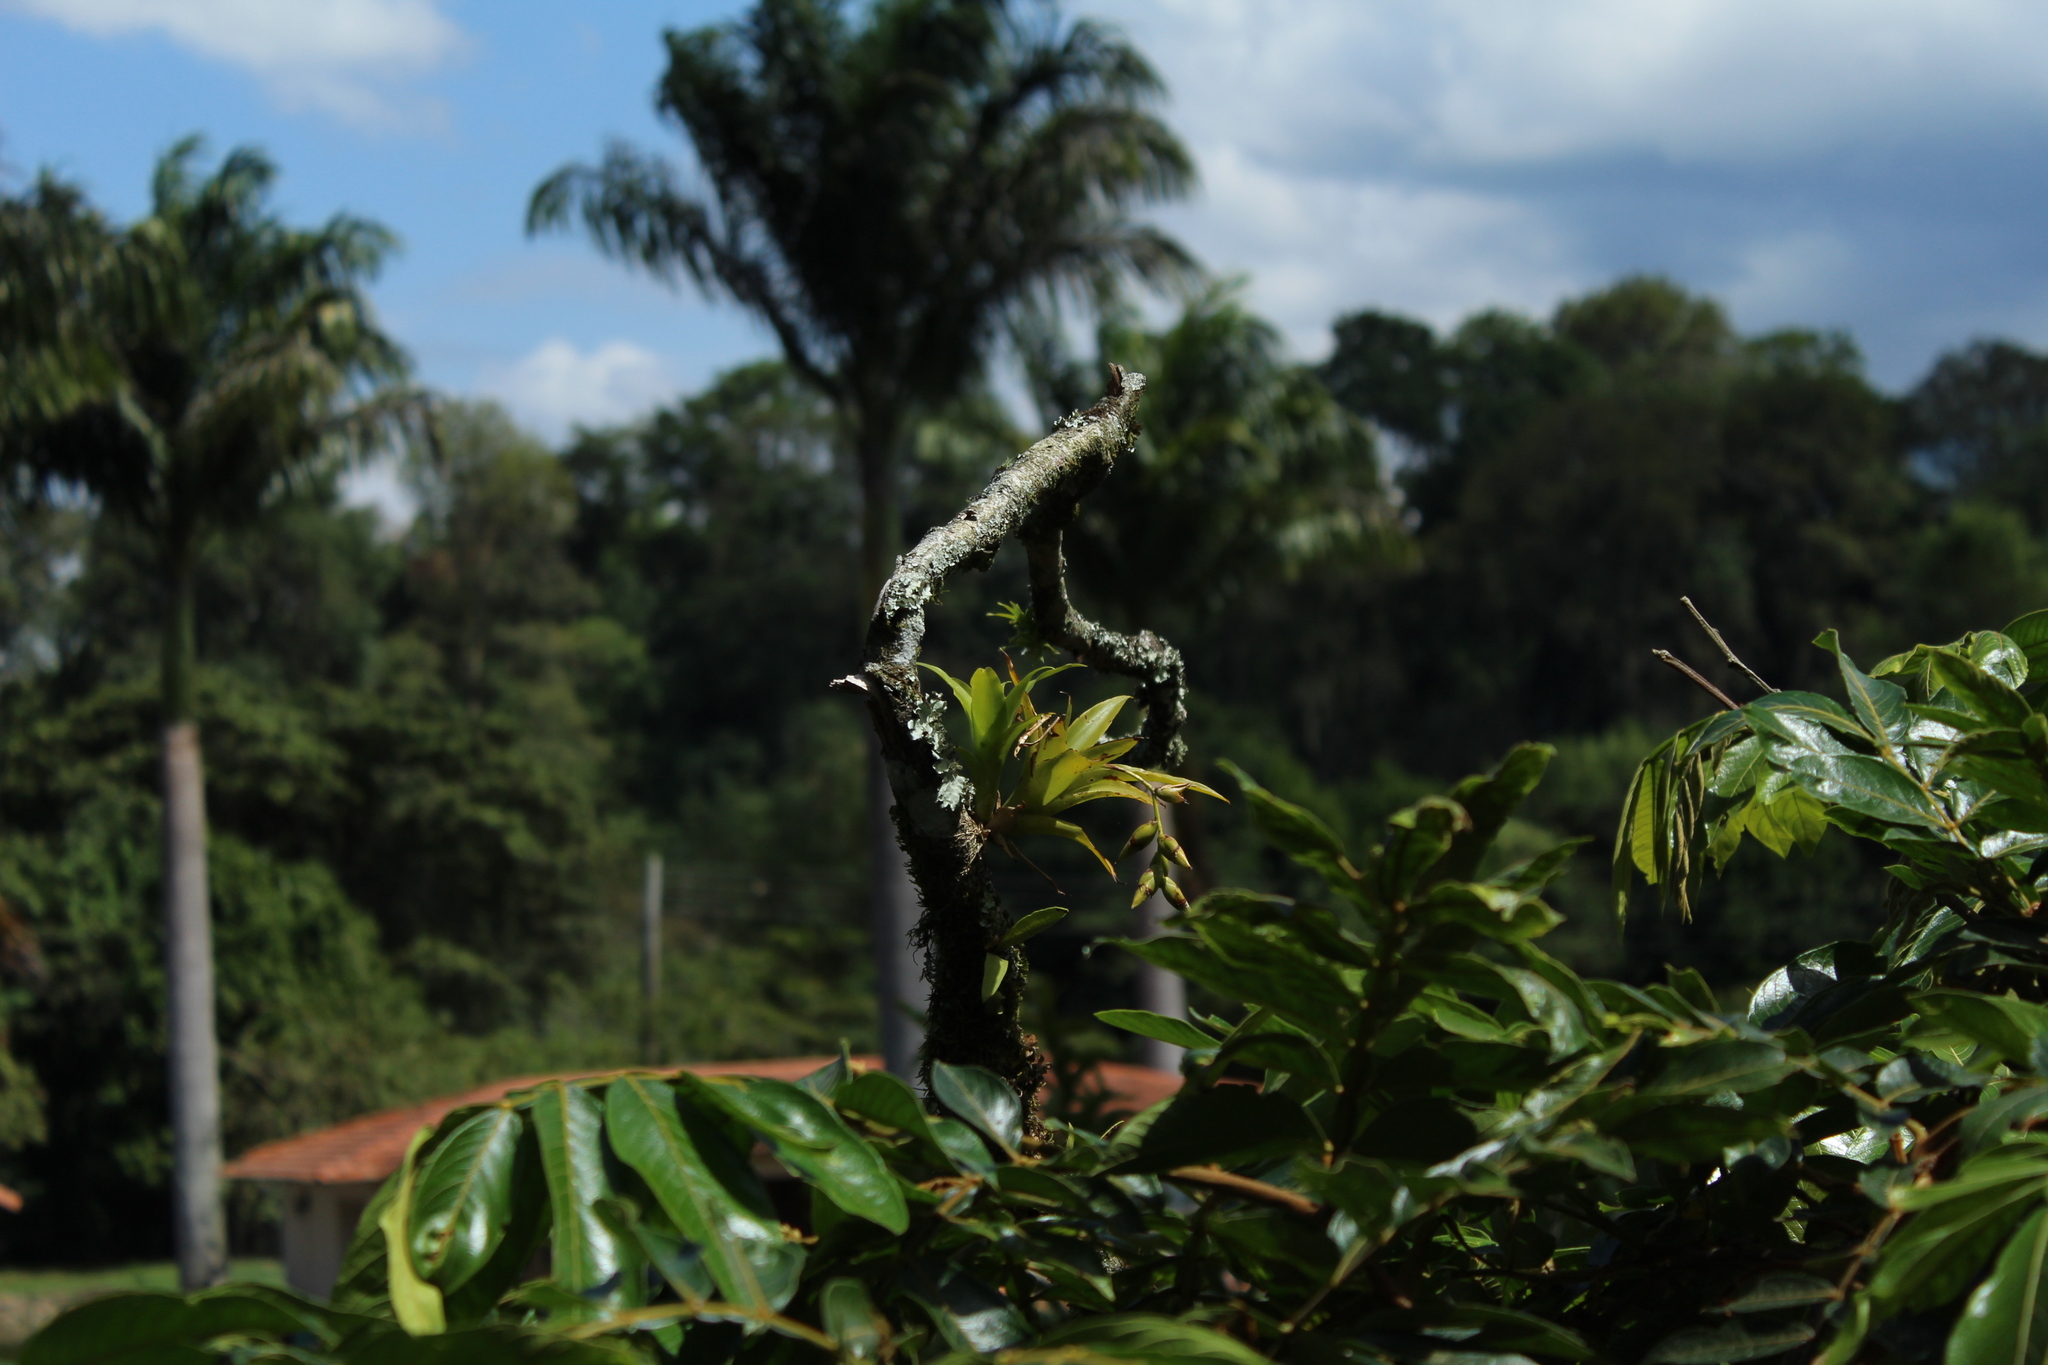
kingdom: Plantae
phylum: Tracheophyta
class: Liliopsida
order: Poales
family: Bromeliaceae
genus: Catopsis
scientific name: Catopsis sessiliflora
